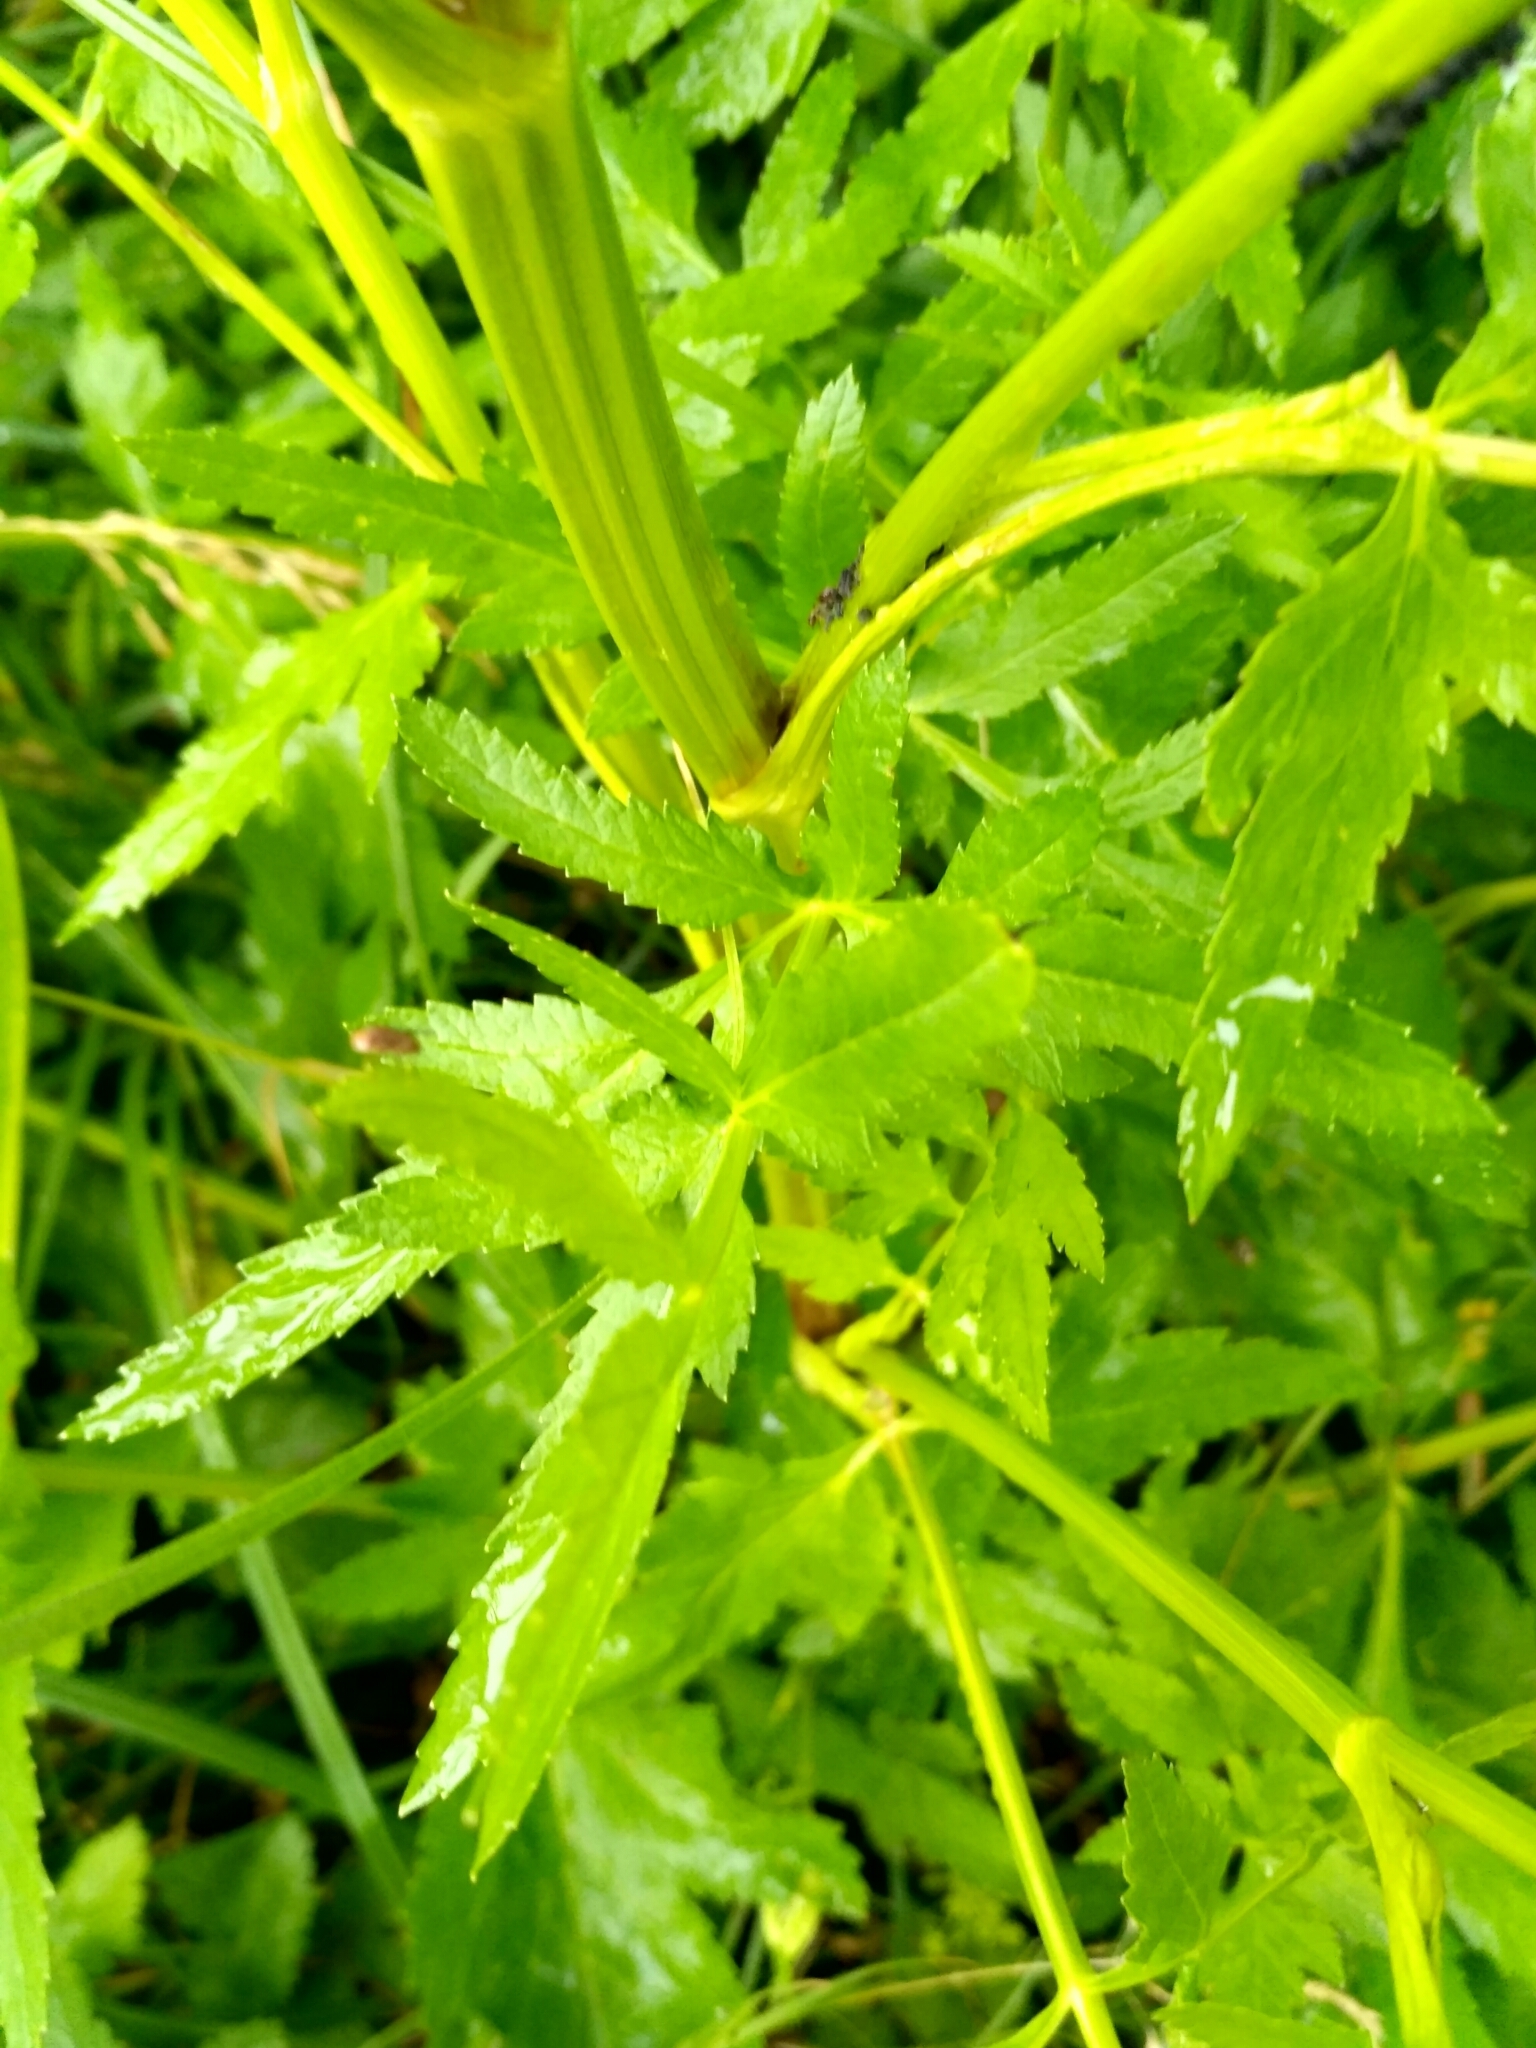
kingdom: Plantae
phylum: Tracheophyta
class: Magnoliopsida
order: Apiales
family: Apiaceae
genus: Pastinaca
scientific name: Pastinaca sativa
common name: Wild parsnip
